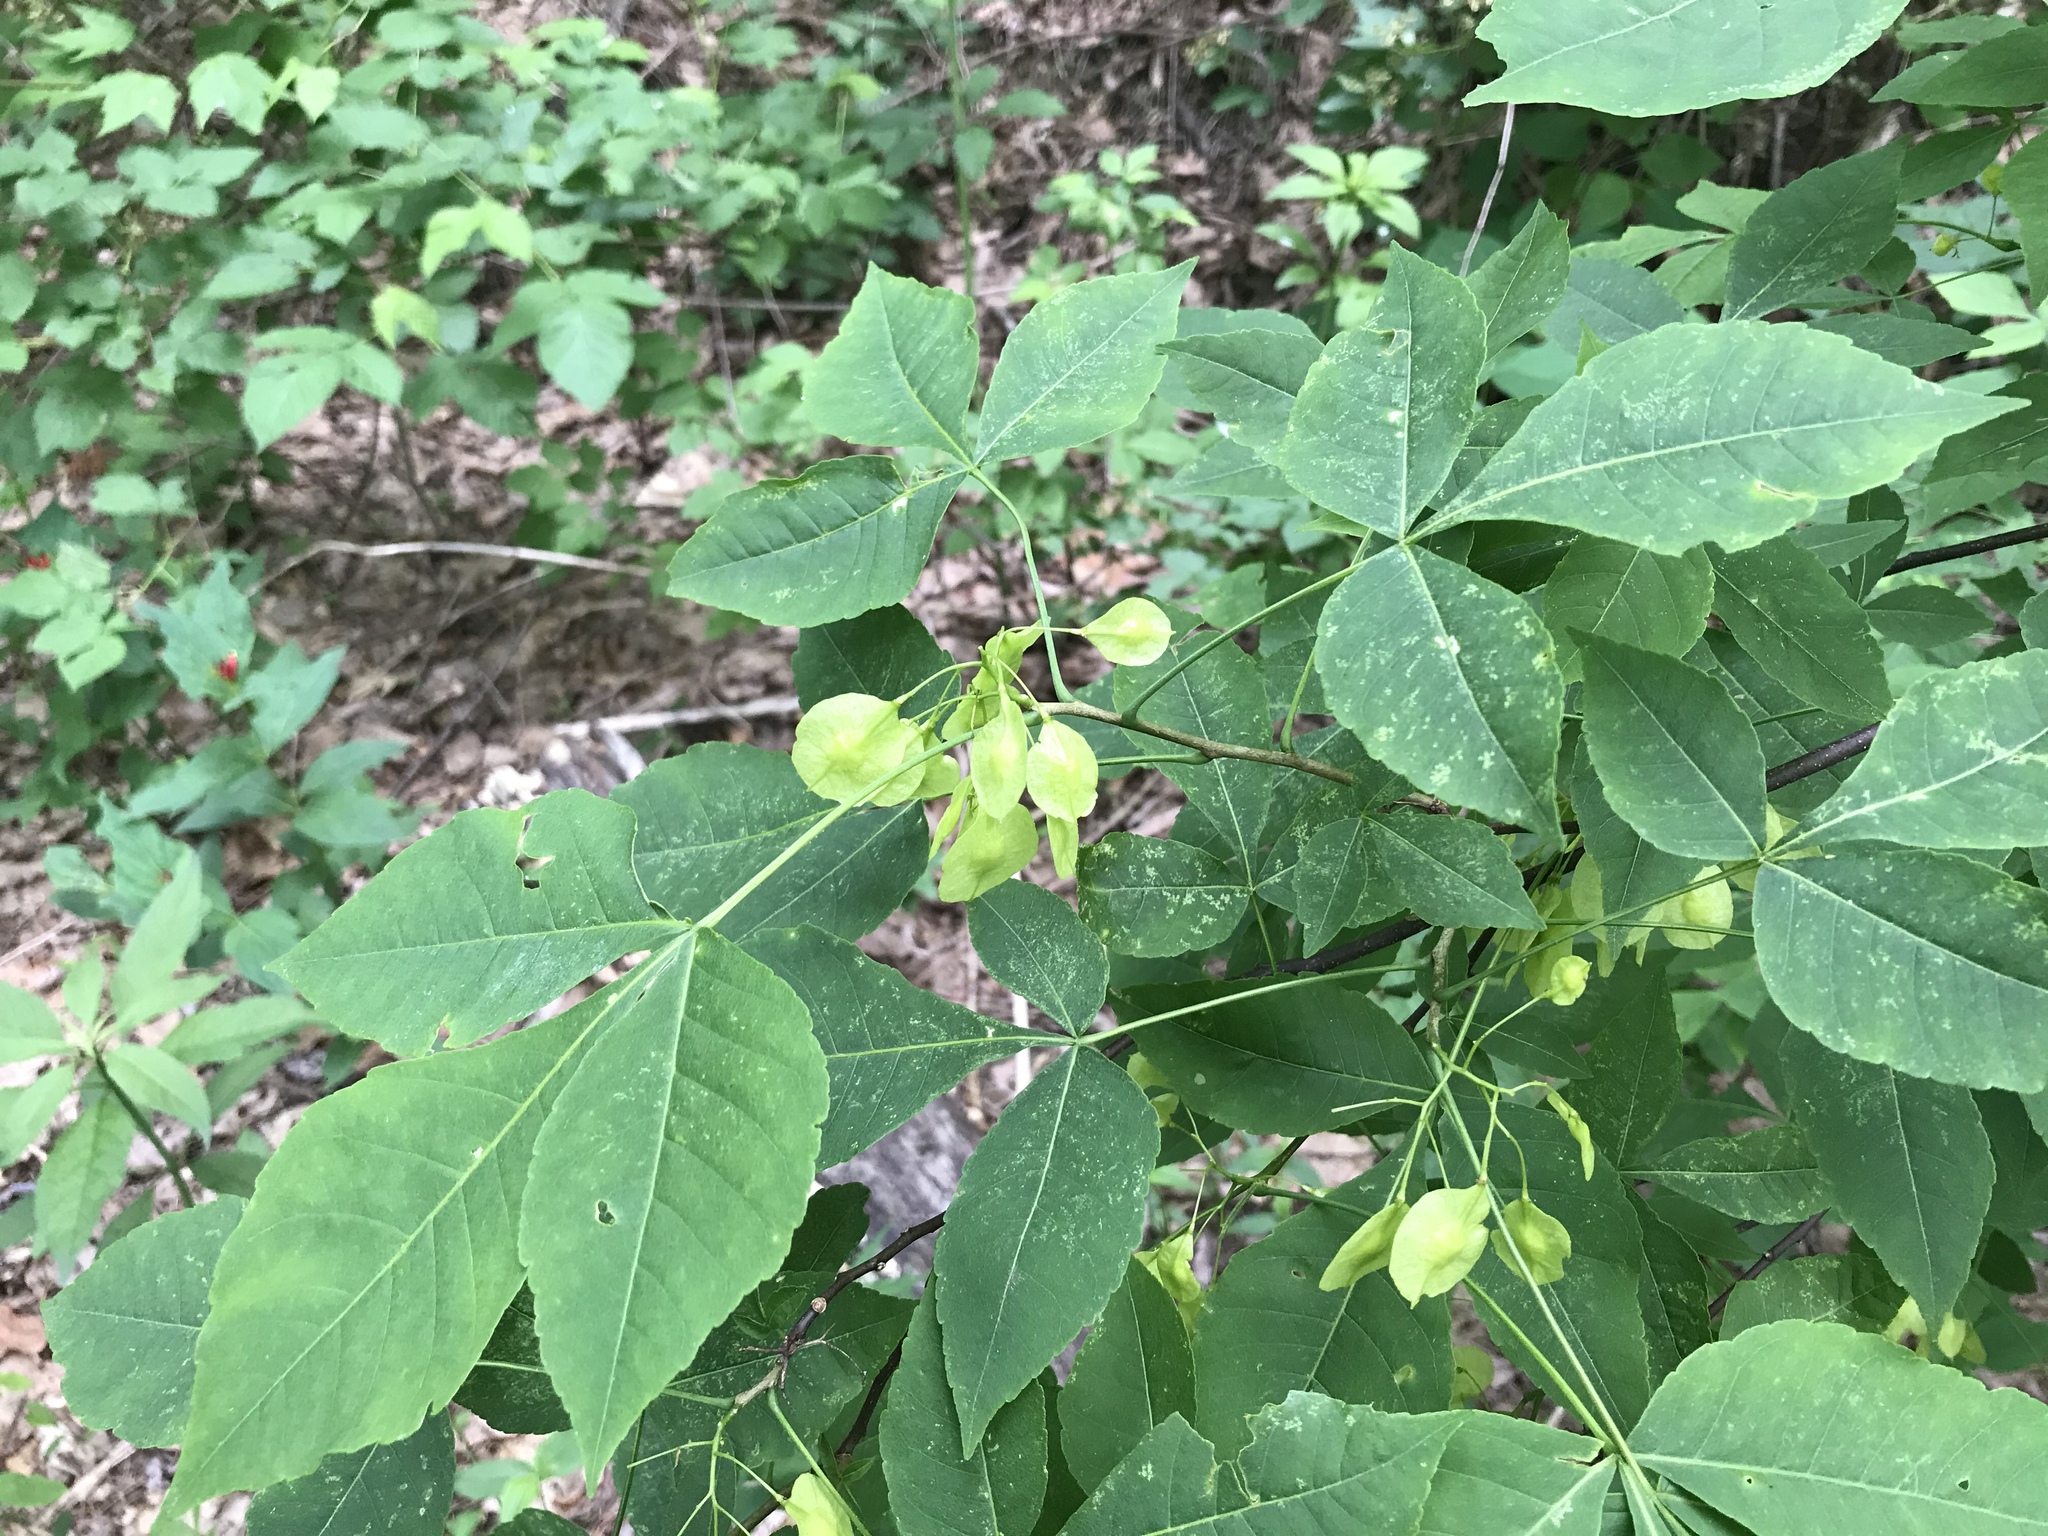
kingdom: Plantae
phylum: Tracheophyta
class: Magnoliopsida
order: Sapindales
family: Rutaceae
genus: Ptelea
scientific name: Ptelea trifoliata
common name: Common hop-tree
